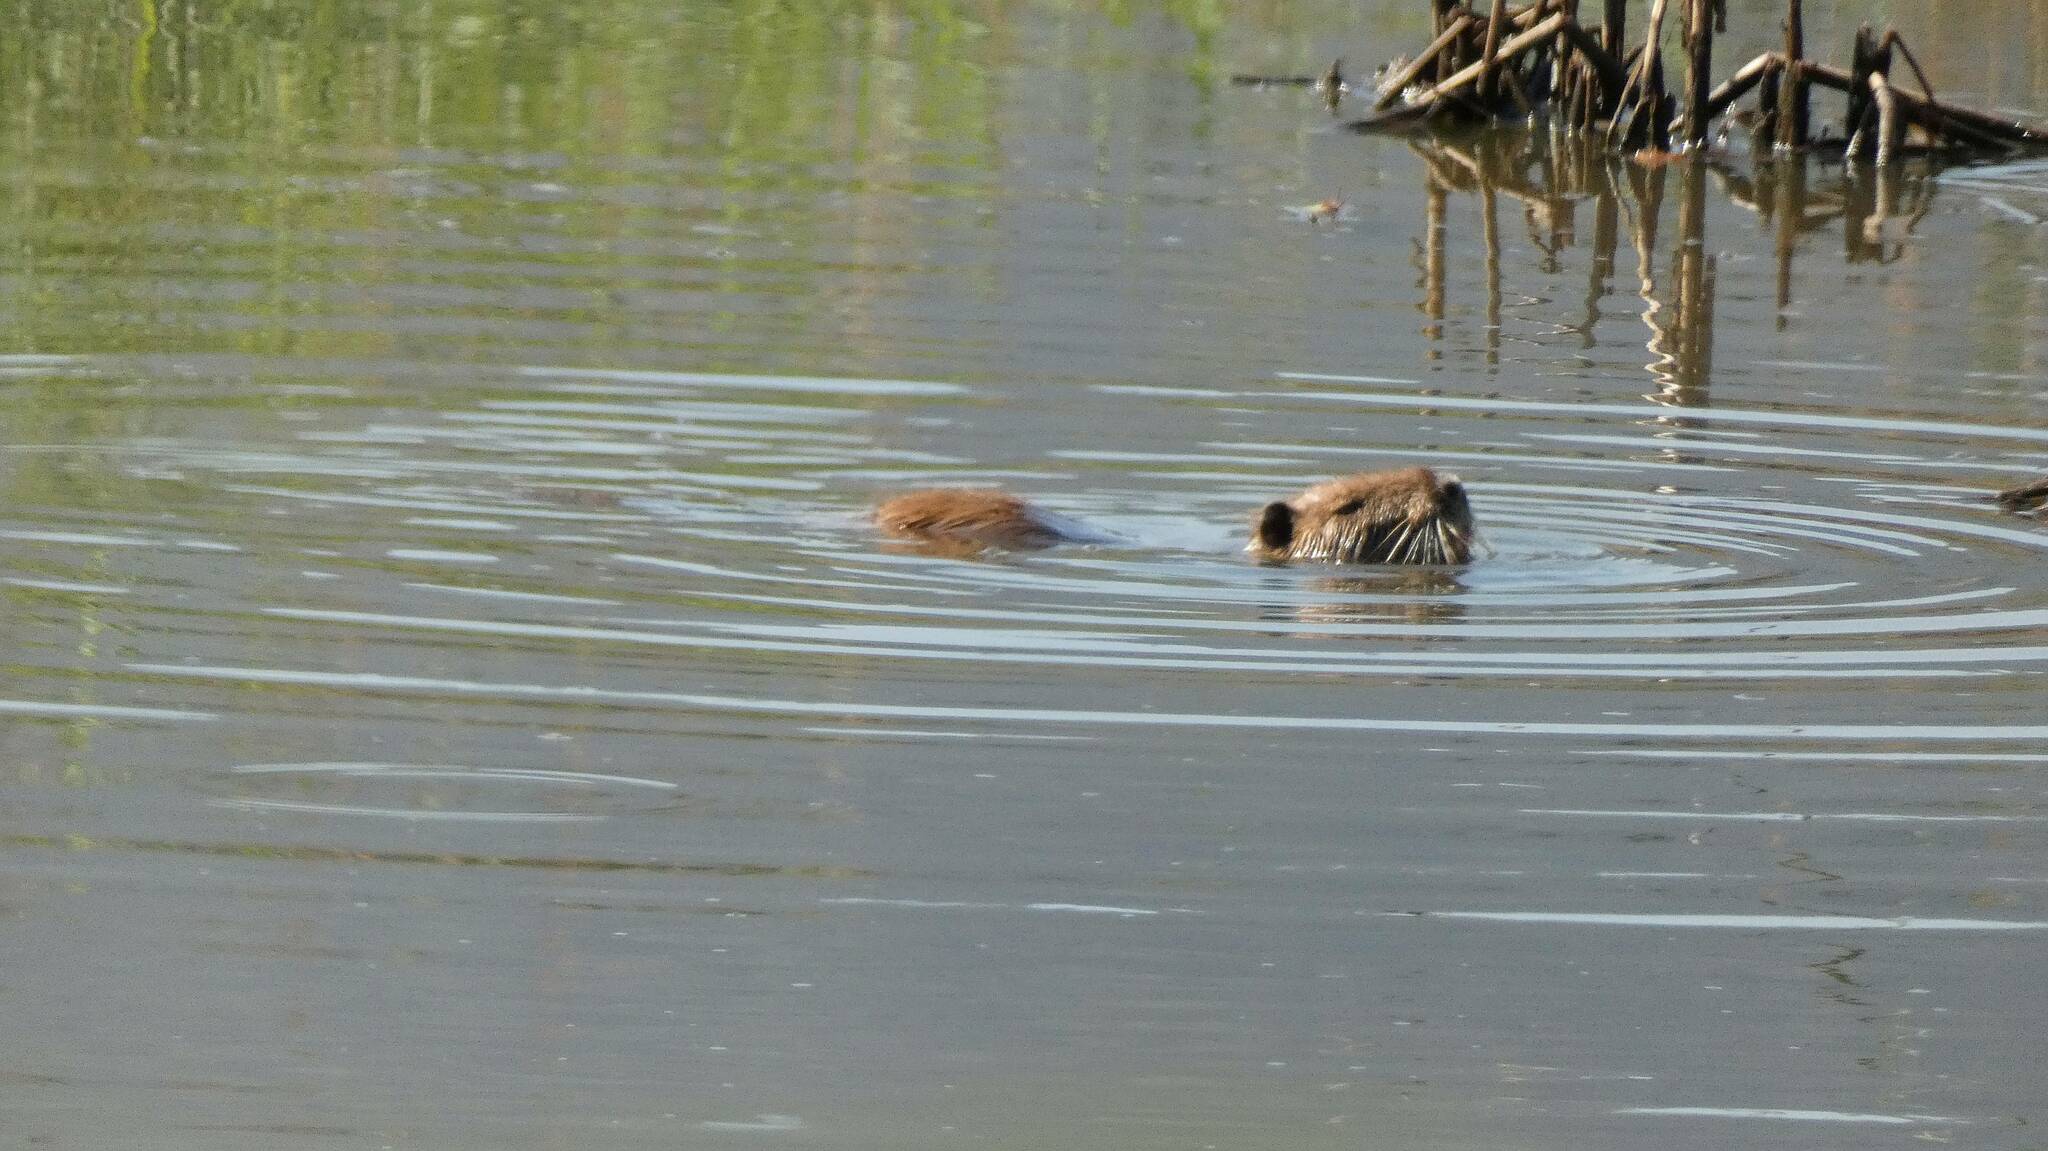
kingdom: Animalia
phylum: Chordata
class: Mammalia
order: Rodentia
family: Myocastoridae
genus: Myocastor
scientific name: Myocastor coypus
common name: Coypu
